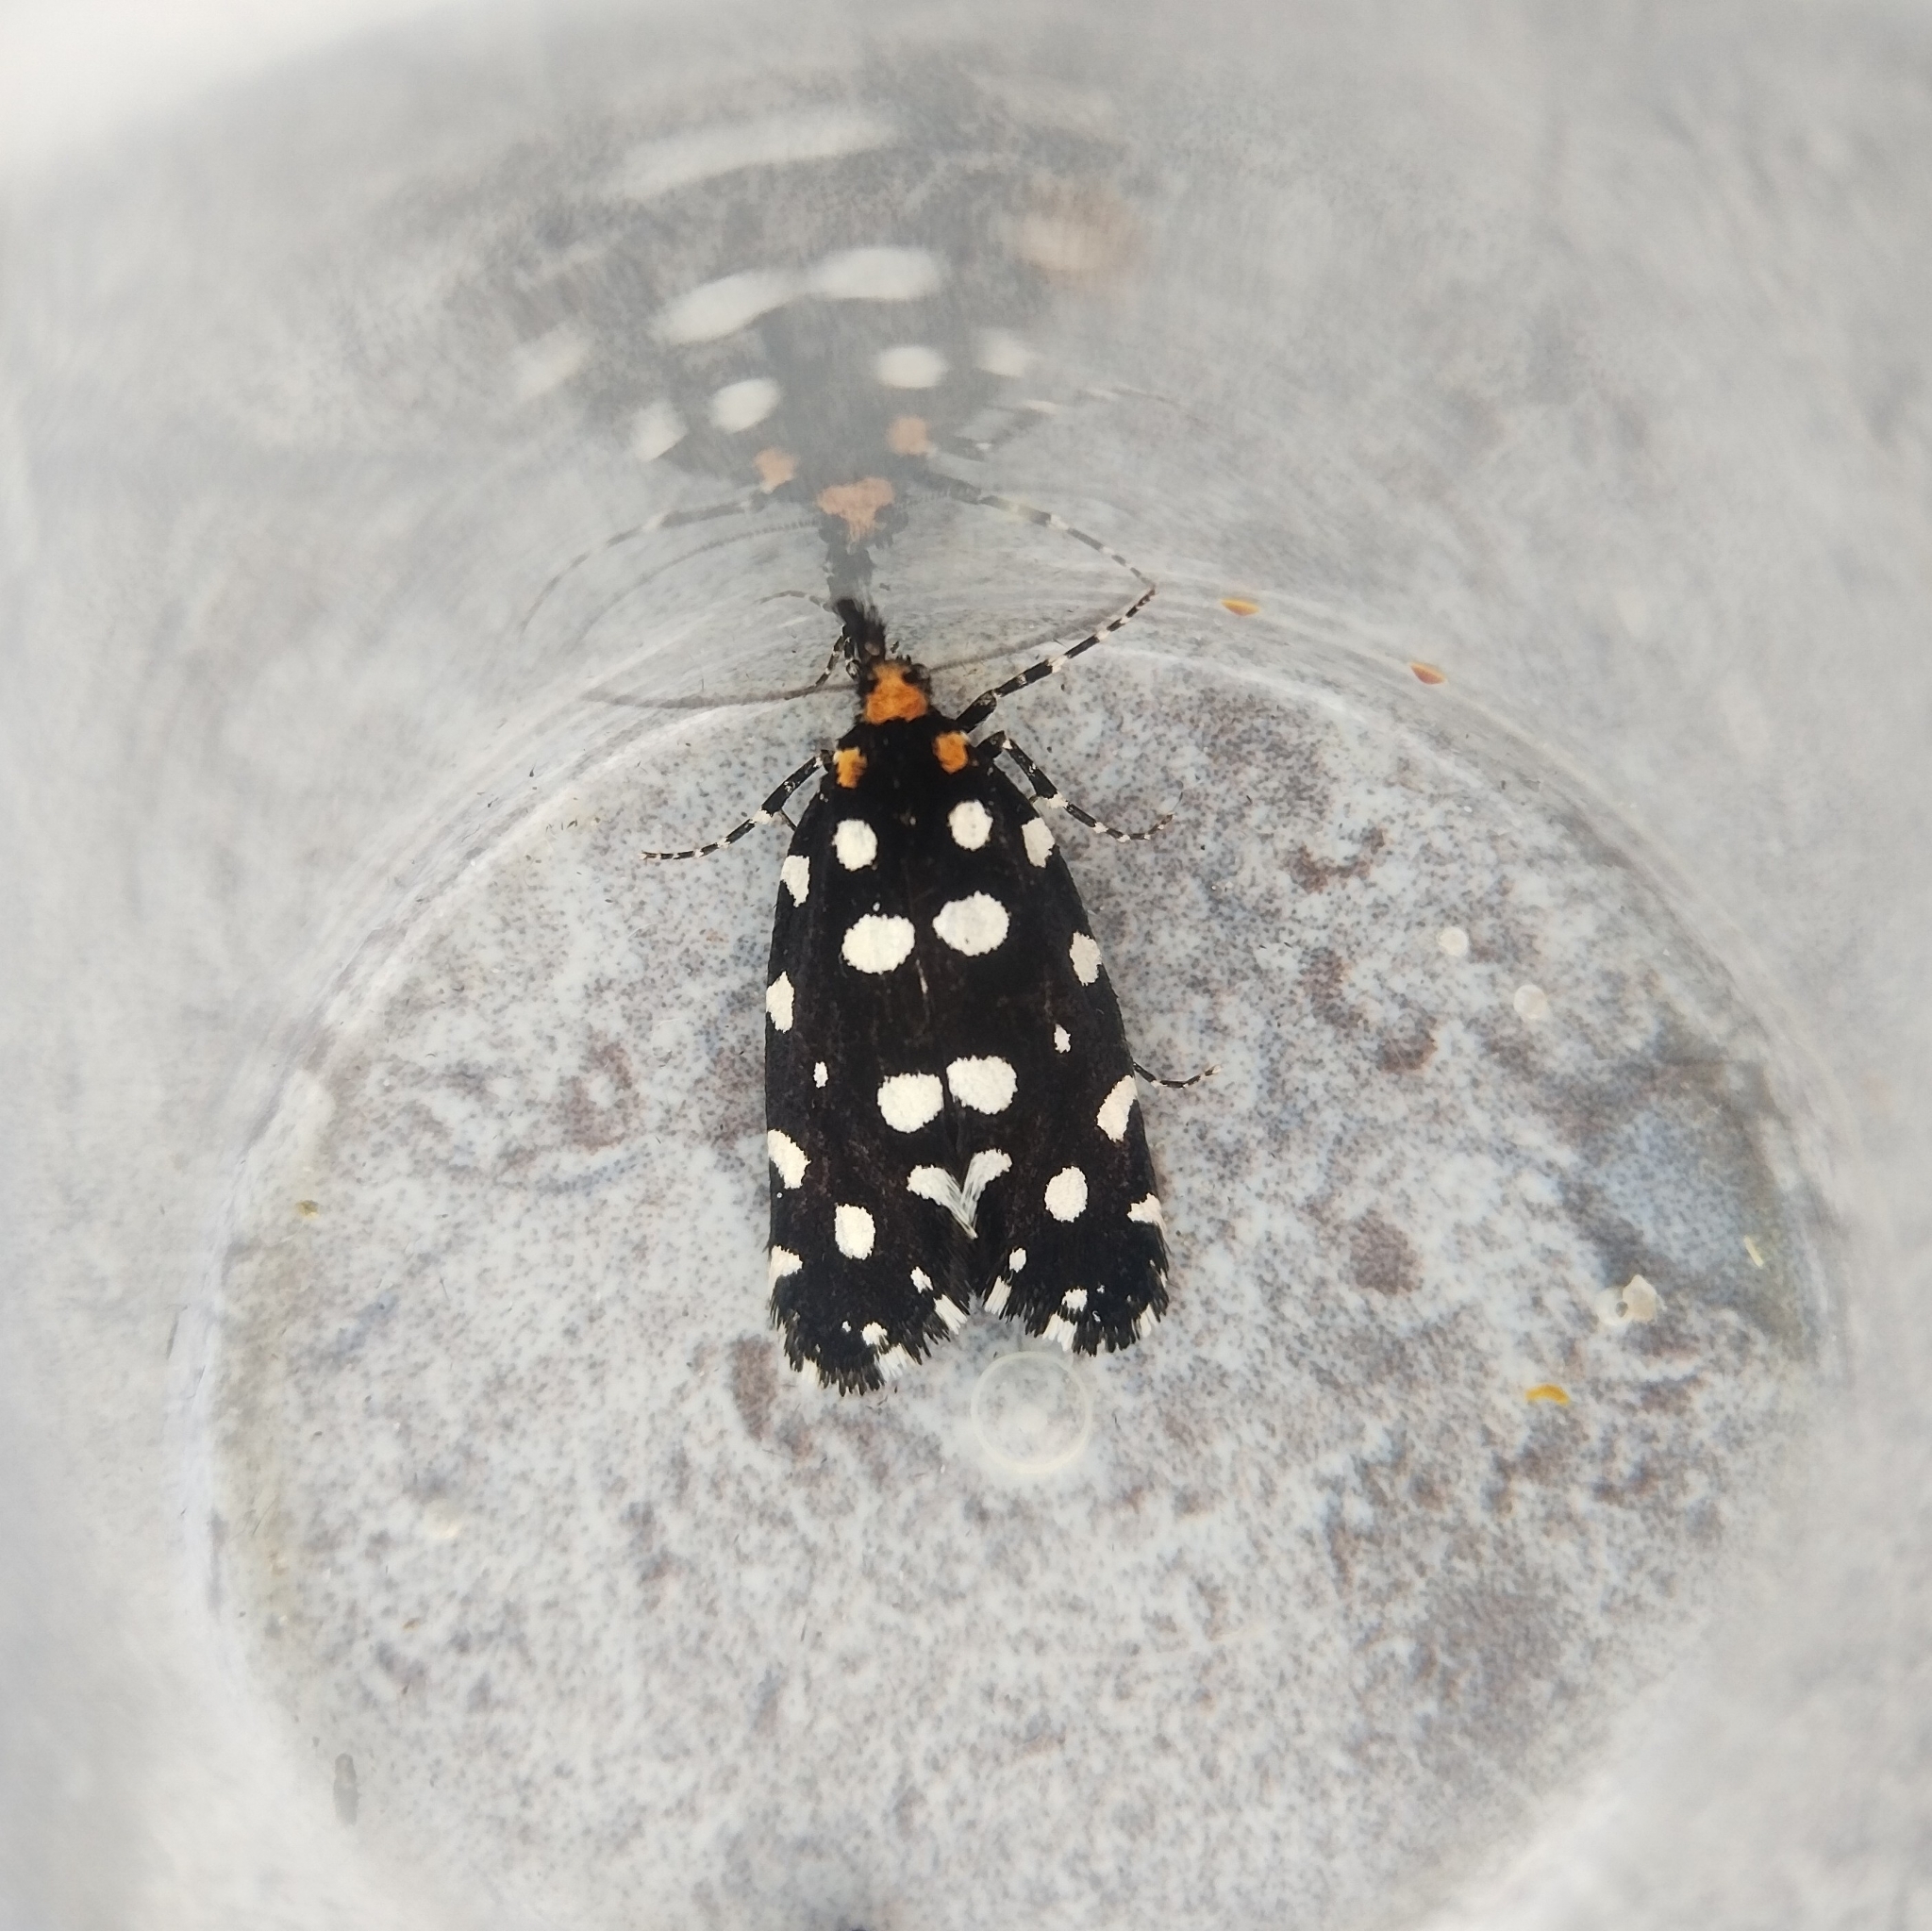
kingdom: Animalia
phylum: Arthropoda
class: Insecta
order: Lepidoptera
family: Tineidae
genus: Euplocamus
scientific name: Euplocamus anthracinalis
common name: Black clothes
